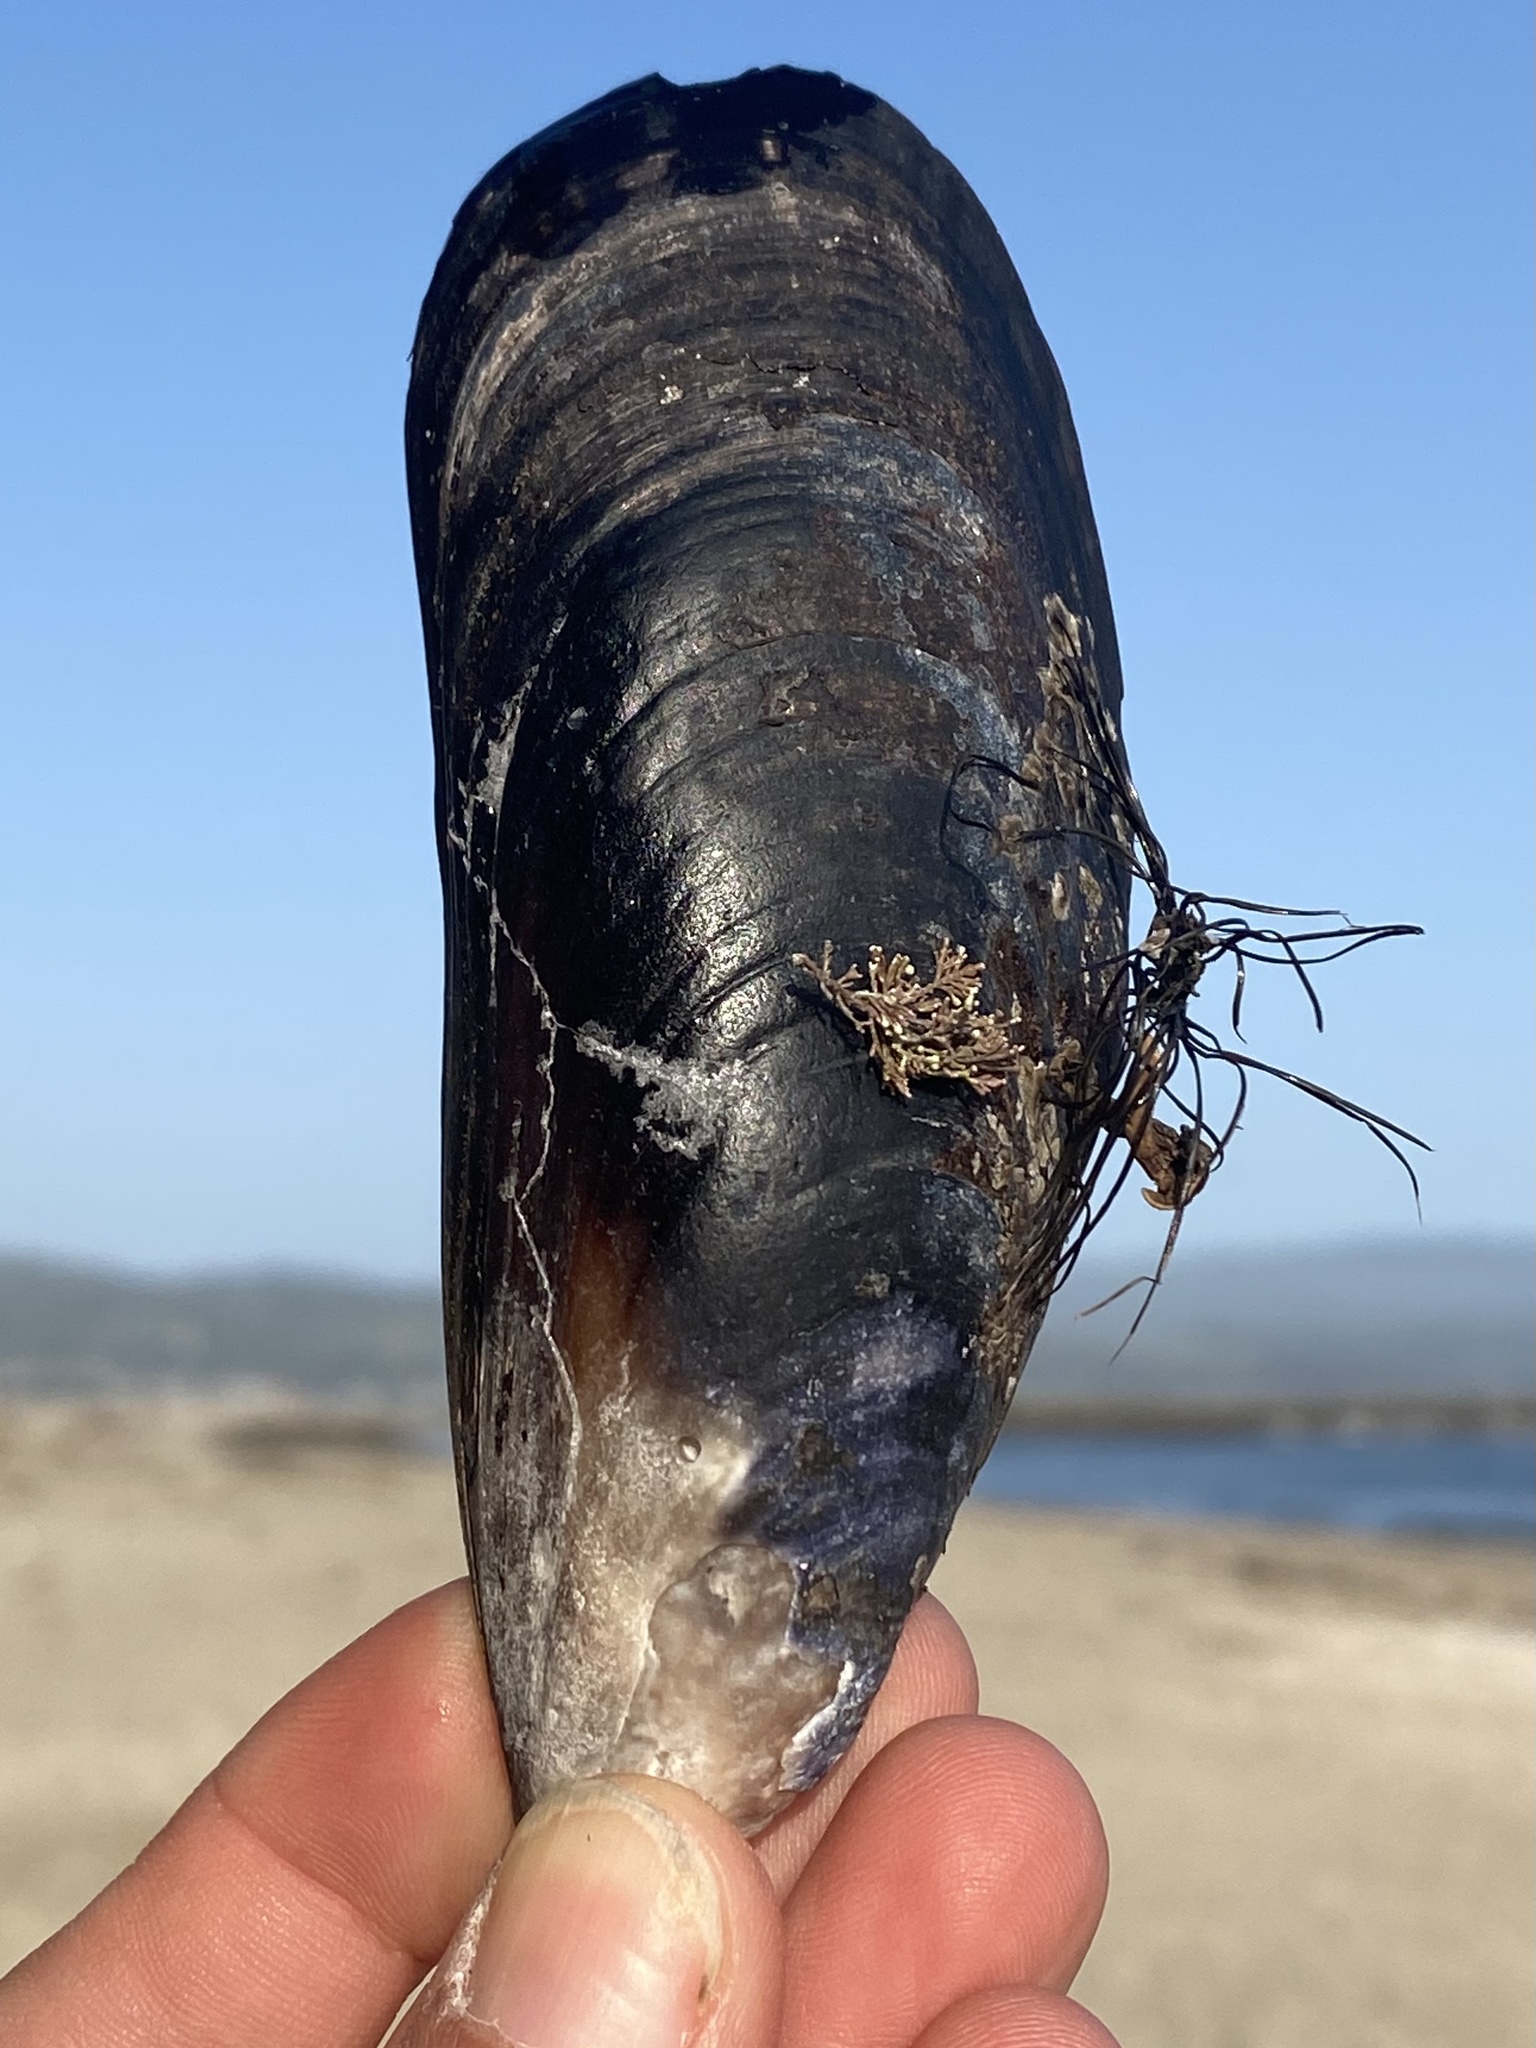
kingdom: Animalia
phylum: Mollusca
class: Bivalvia
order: Mytilida
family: Mytilidae
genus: Mytilus
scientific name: Mytilus californianus
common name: California mussel
